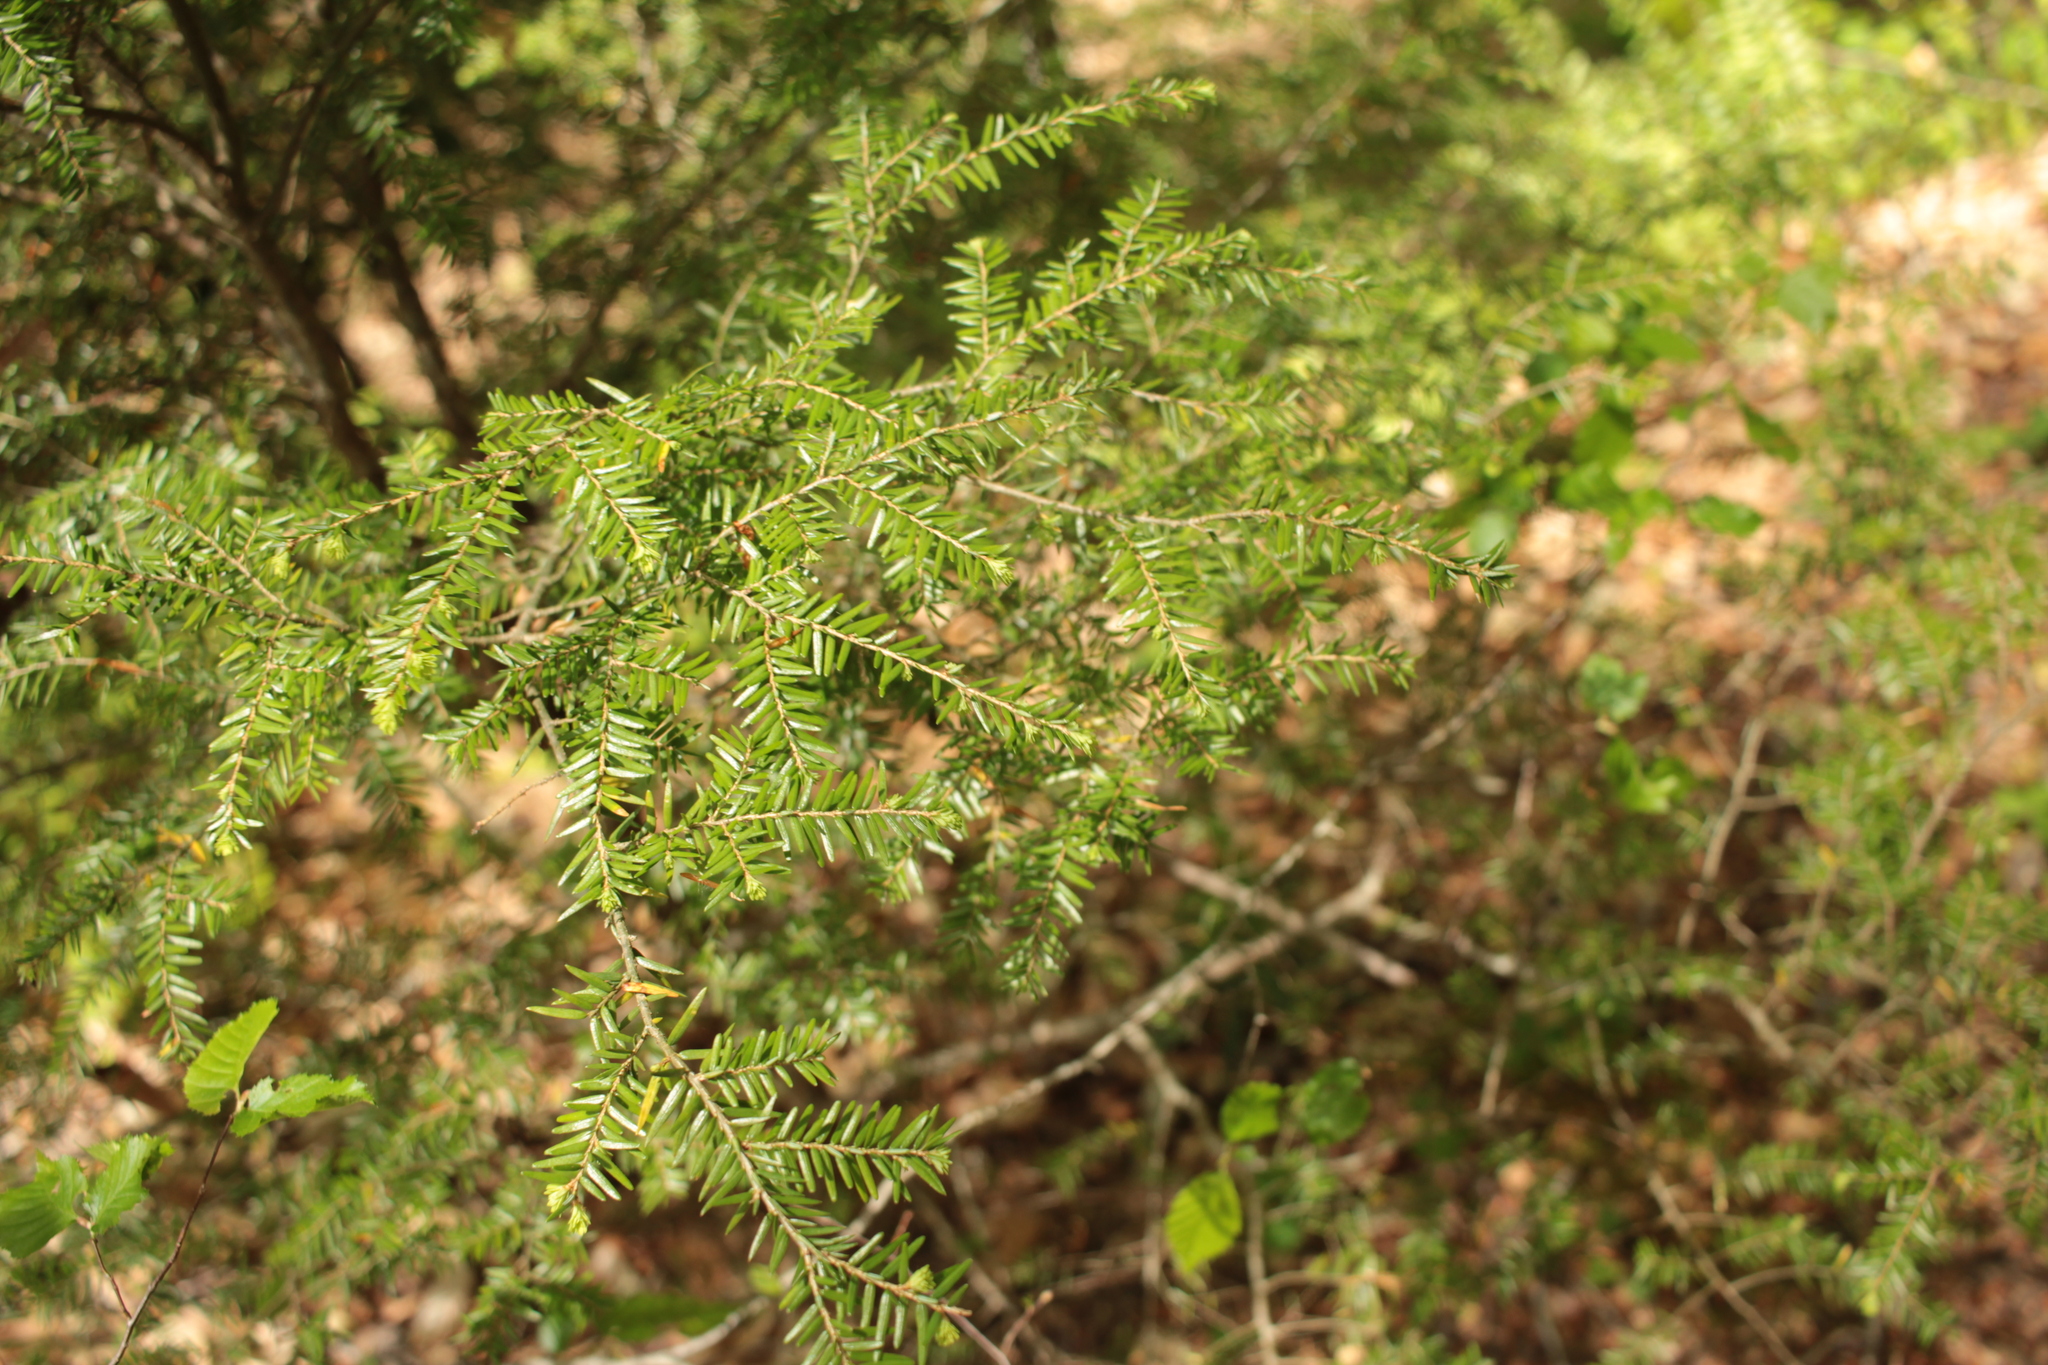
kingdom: Plantae
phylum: Tracheophyta
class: Pinopsida
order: Pinales
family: Pinaceae
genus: Tsuga
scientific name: Tsuga canadensis
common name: Eastern hemlock
